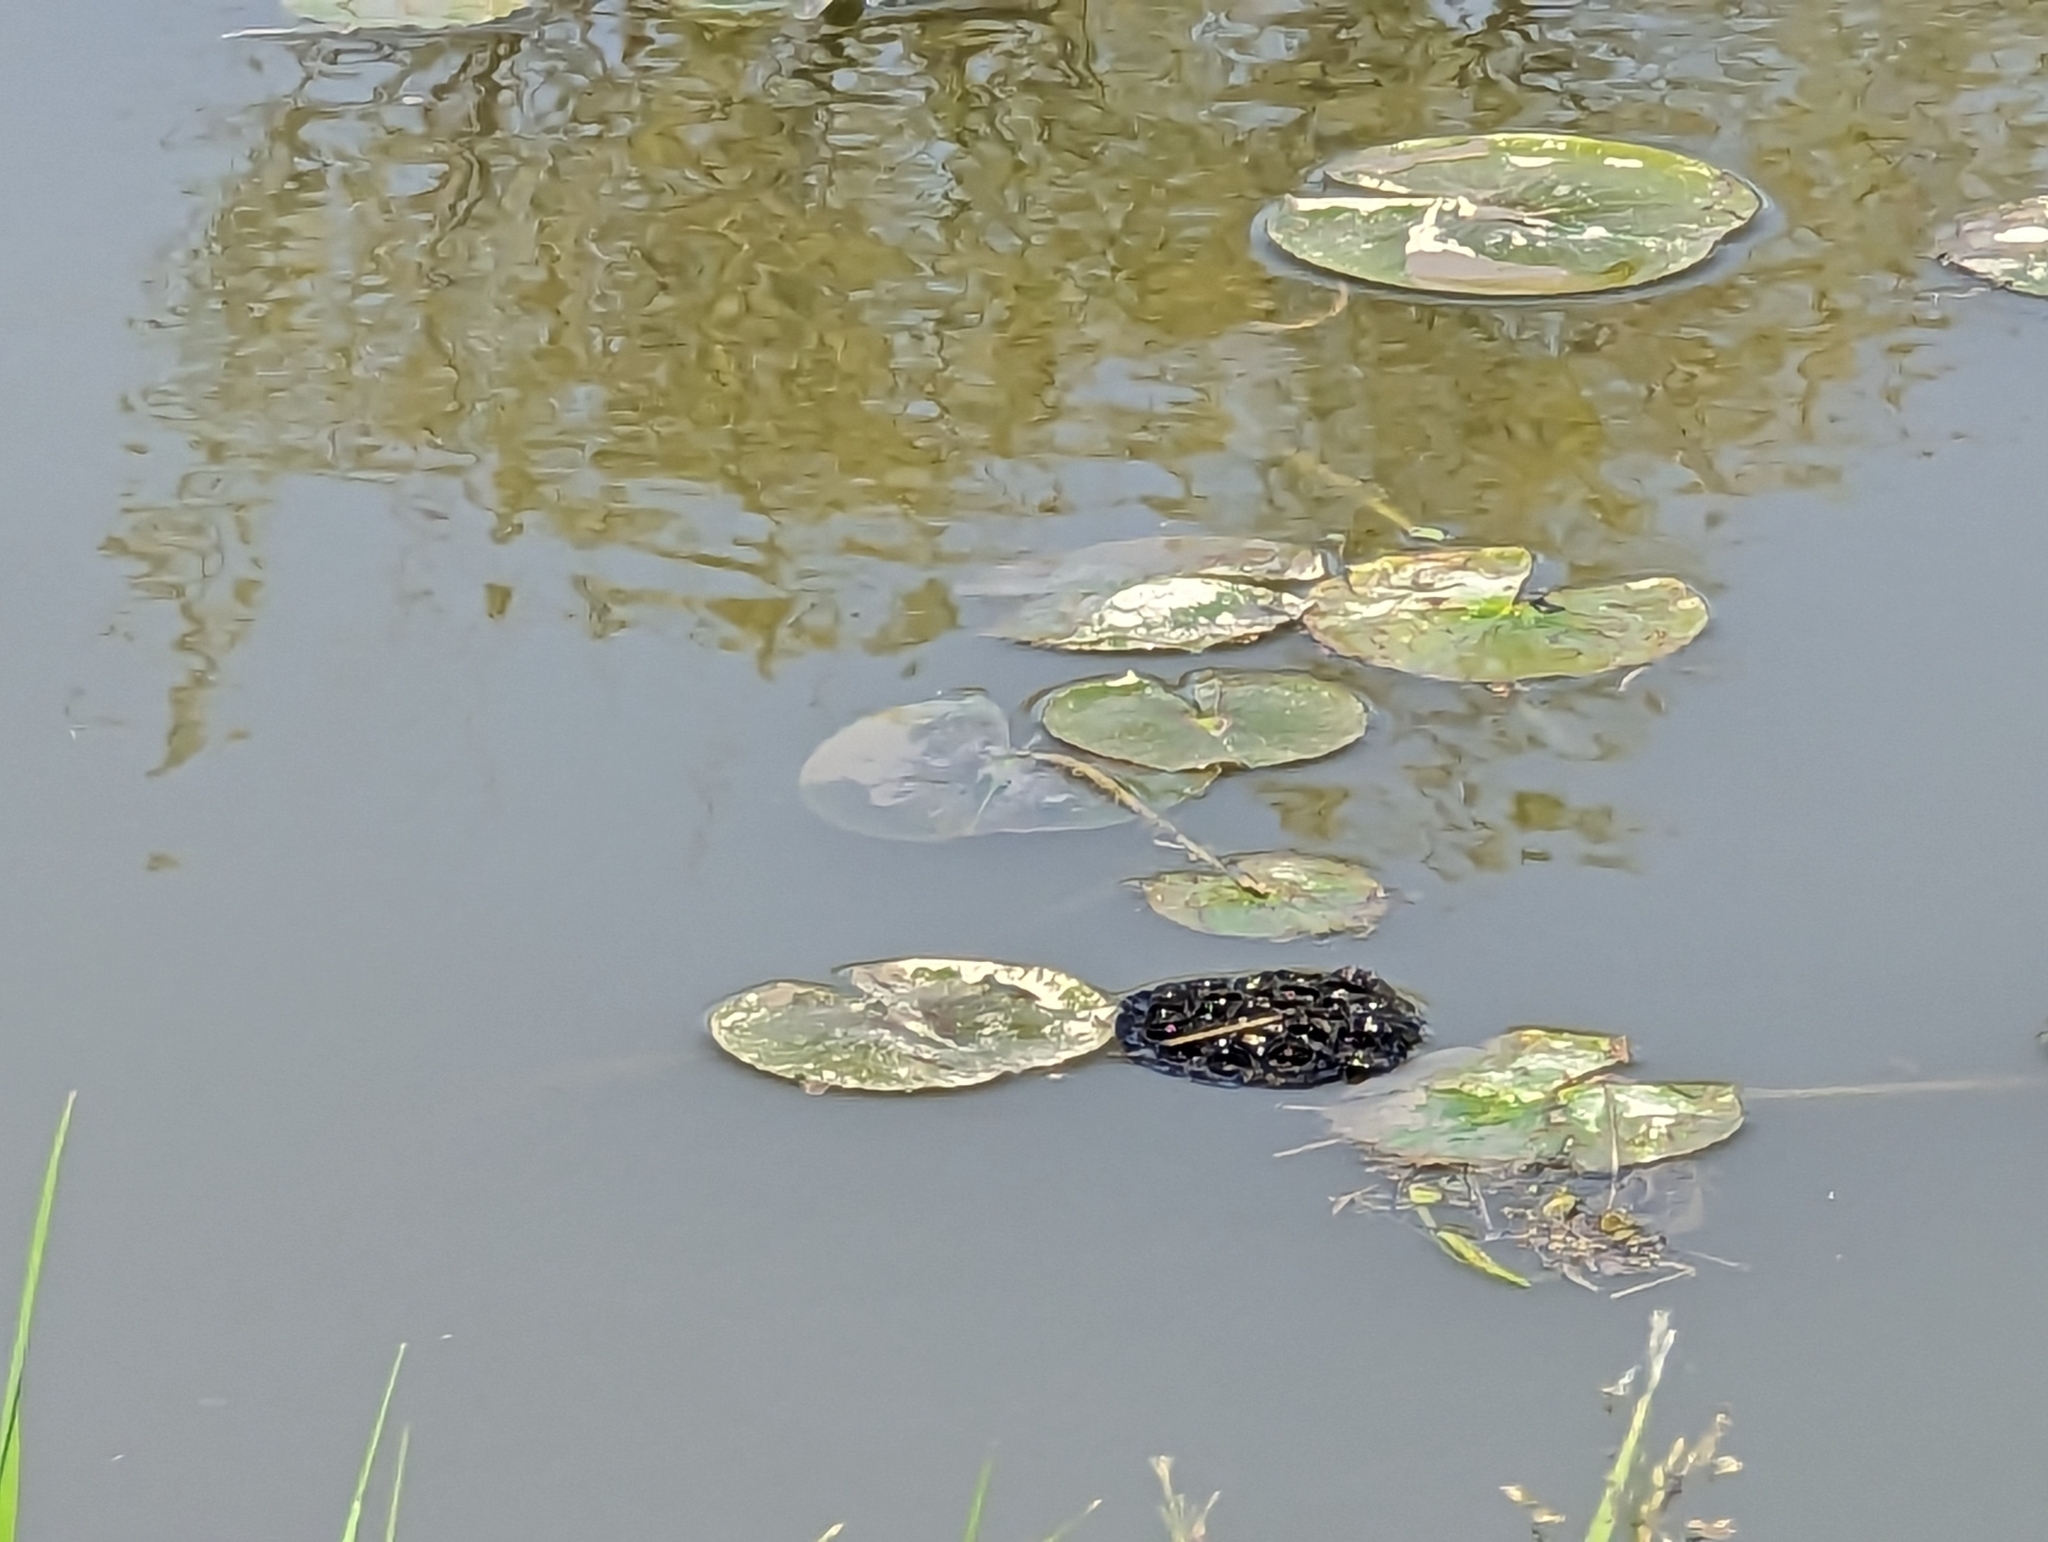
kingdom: Plantae
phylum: Tracheophyta
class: Magnoliopsida
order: Proteales
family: Nelumbonaceae
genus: Nelumbo
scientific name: Nelumbo lutea
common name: American lotus
